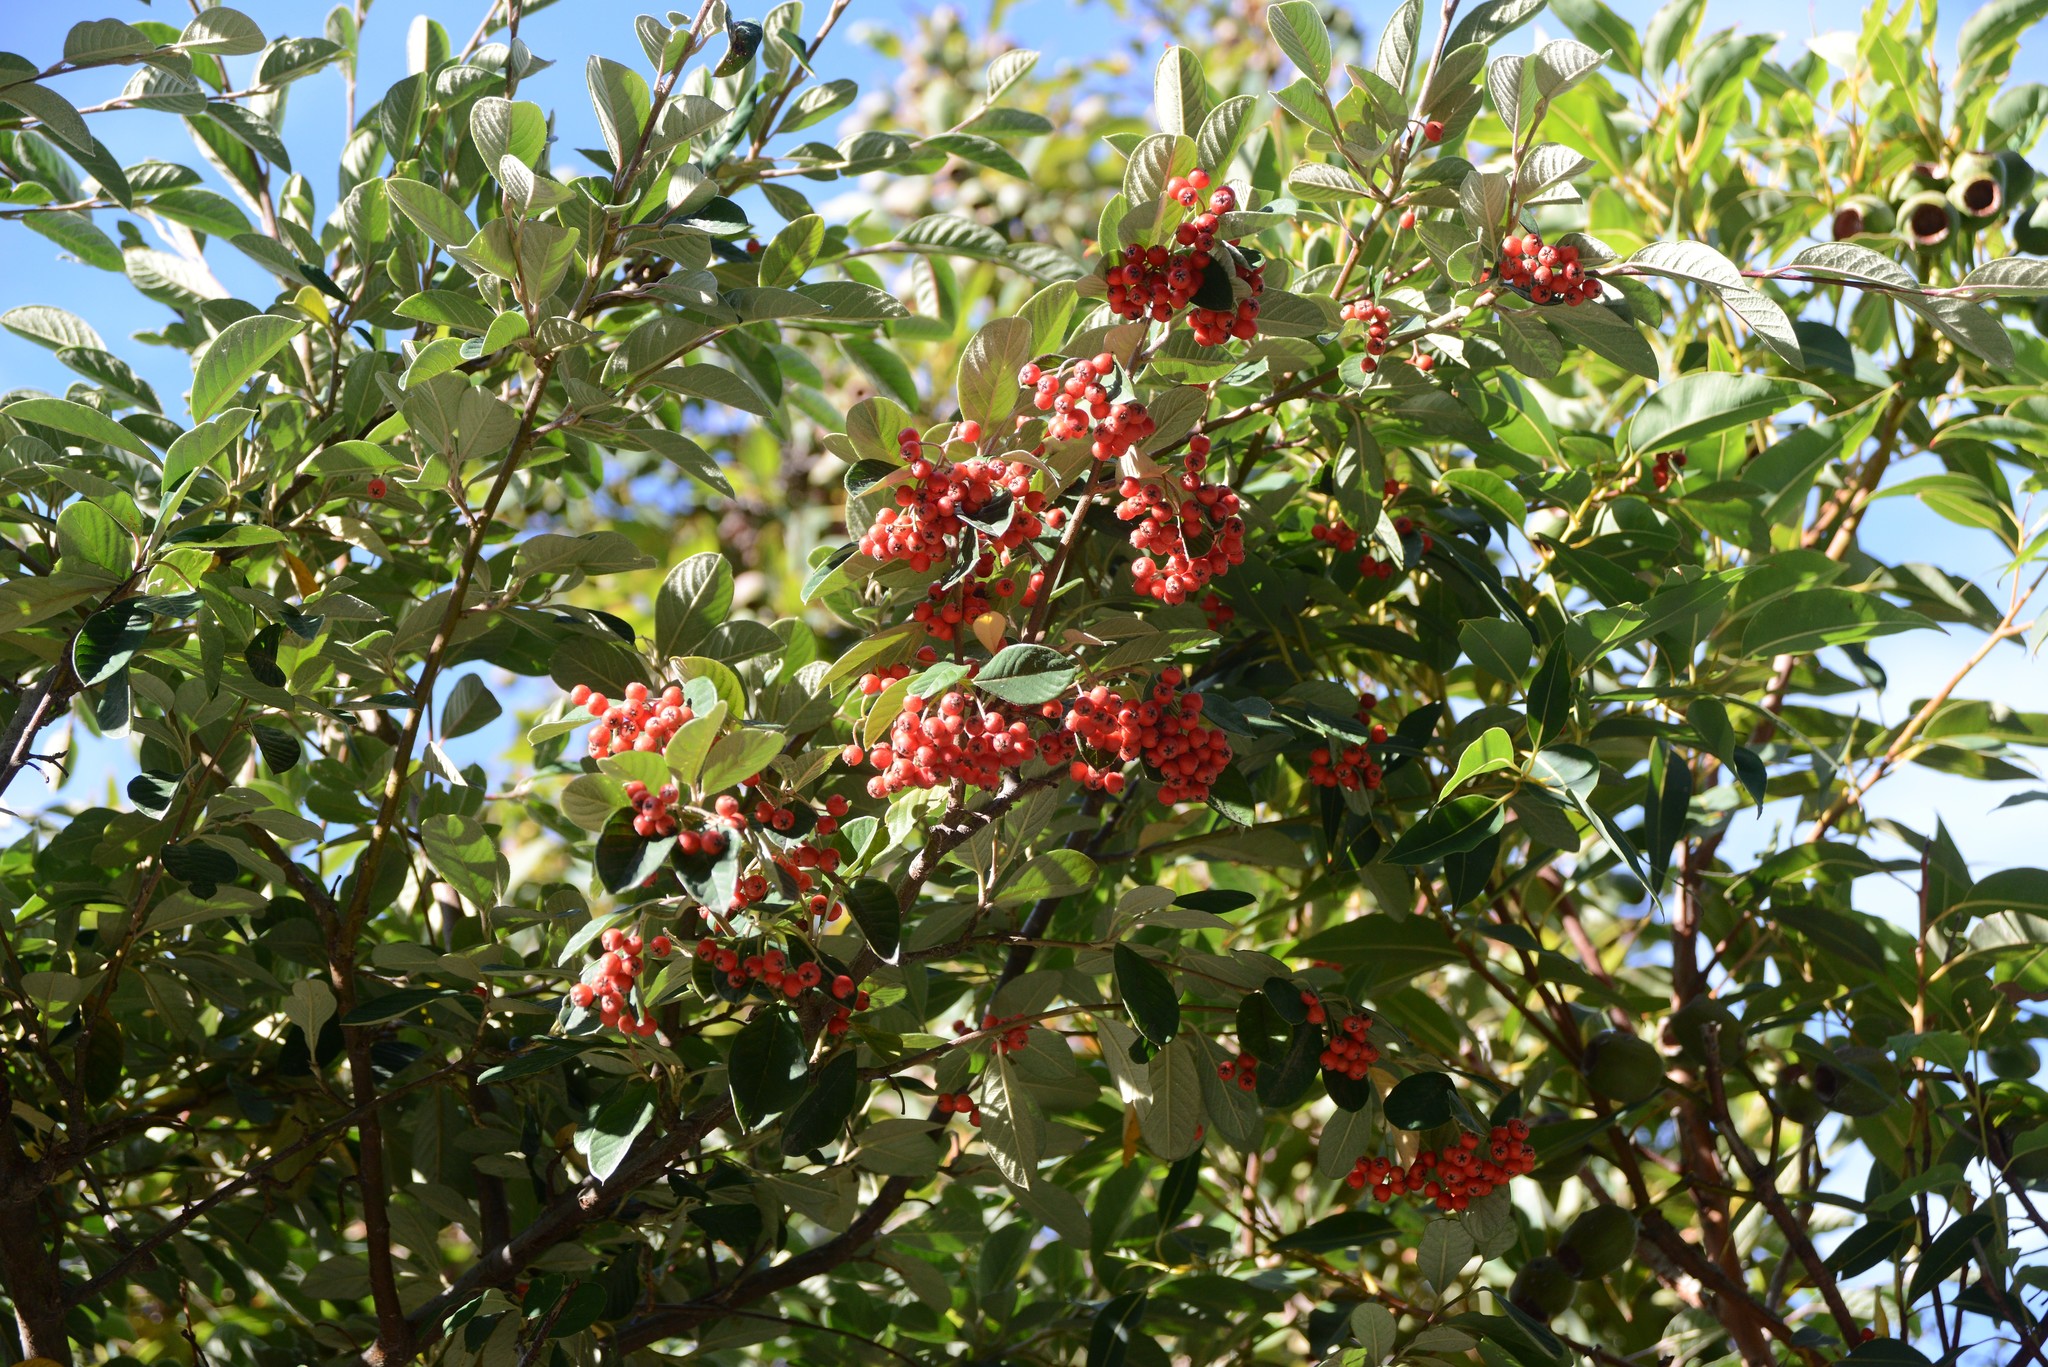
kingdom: Plantae
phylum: Tracheophyta
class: Magnoliopsida
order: Rosales
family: Rosaceae
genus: Cotoneaster
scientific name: Cotoneaster coriaceus
